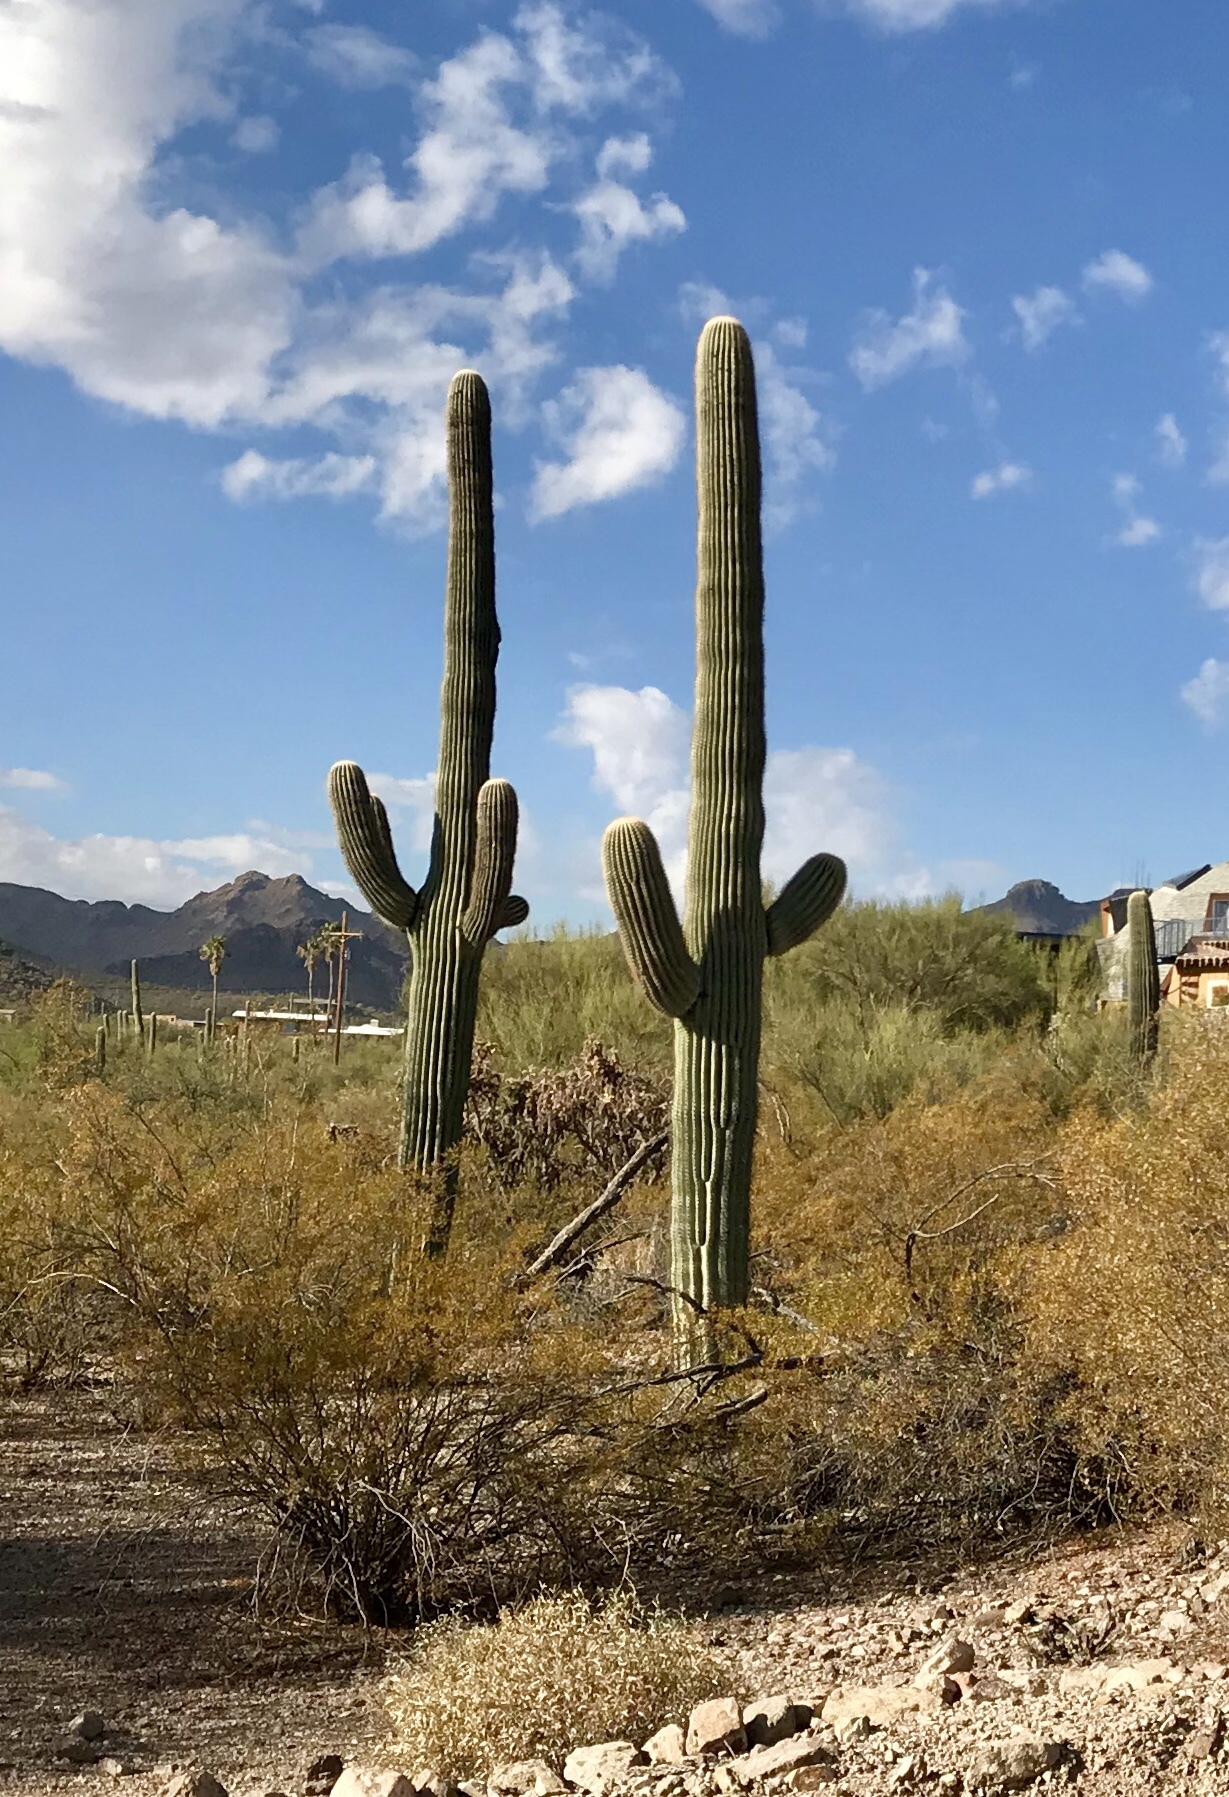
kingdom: Plantae
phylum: Tracheophyta
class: Magnoliopsida
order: Caryophyllales
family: Cactaceae
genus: Carnegiea
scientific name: Carnegiea gigantea
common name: Saguaro
